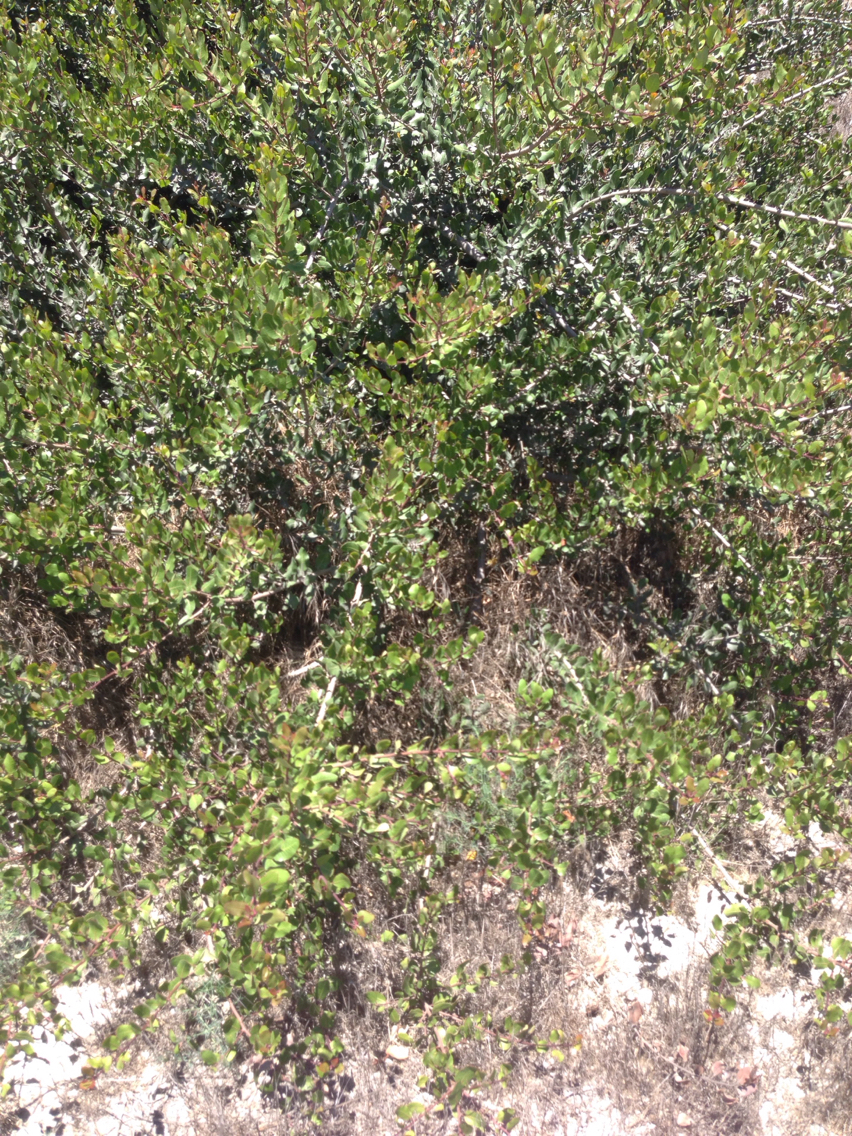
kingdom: Plantae
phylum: Tracheophyta
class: Magnoliopsida
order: Sapindales
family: Anacardiaceae
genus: Rhus
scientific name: Rhus integrifolia
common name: Lemonade sumac
